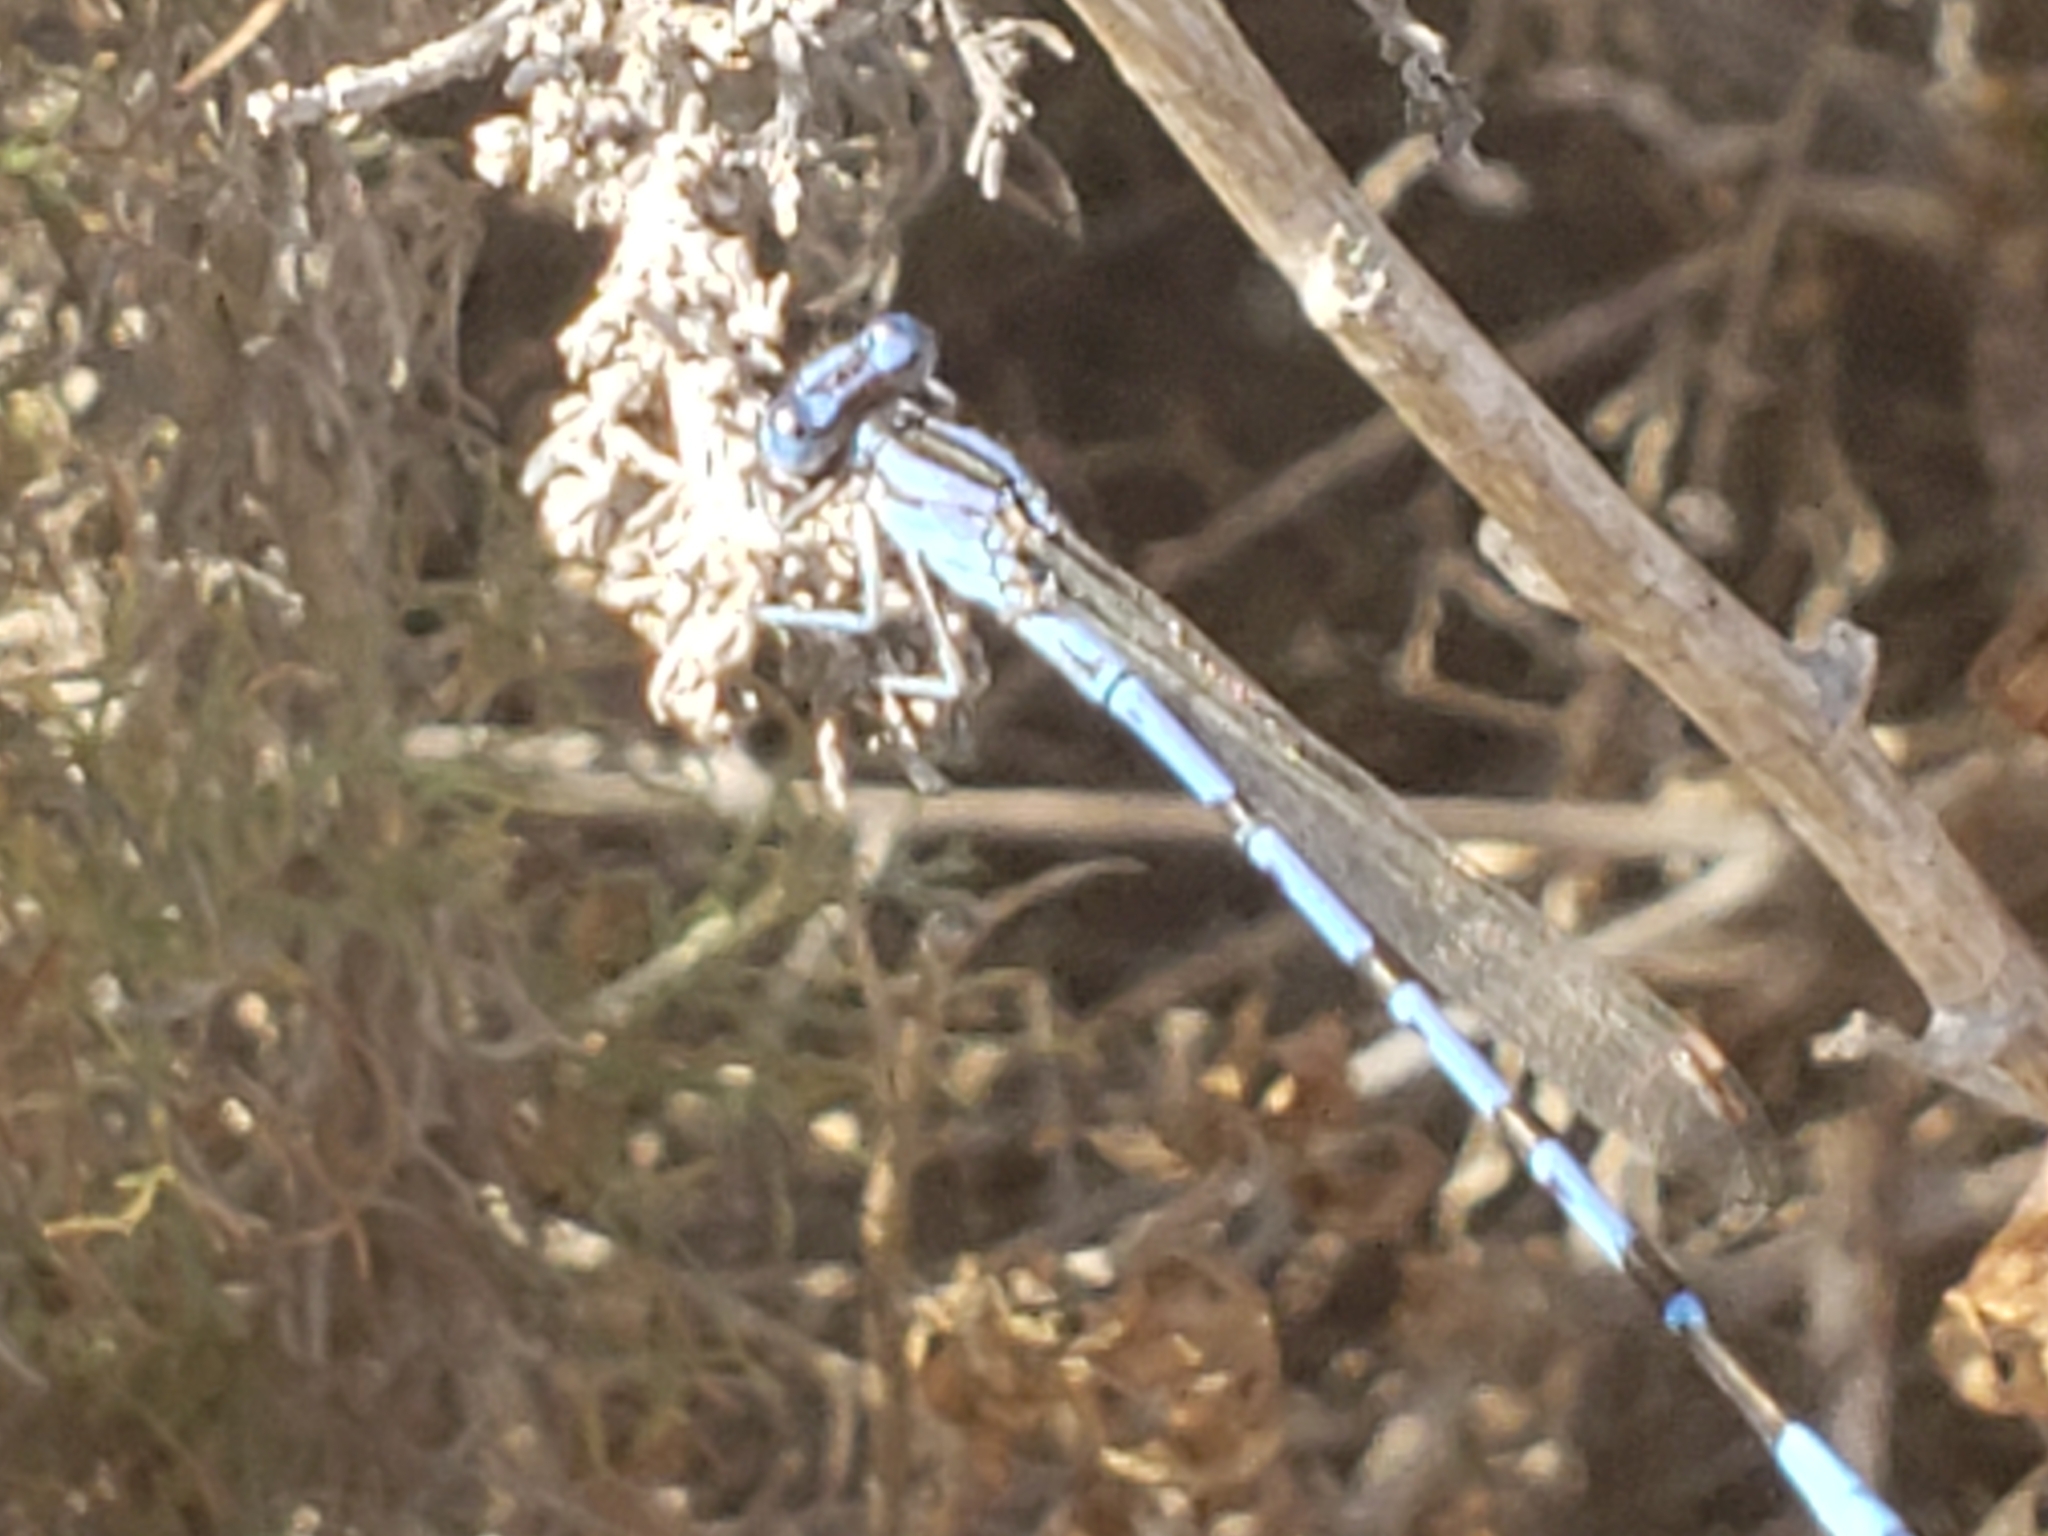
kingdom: Animalia
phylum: Arthropoda
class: Insecta
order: Odonata
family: Coenagrionidae
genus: Argia
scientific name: Argia vivida
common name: Vivid dancer
